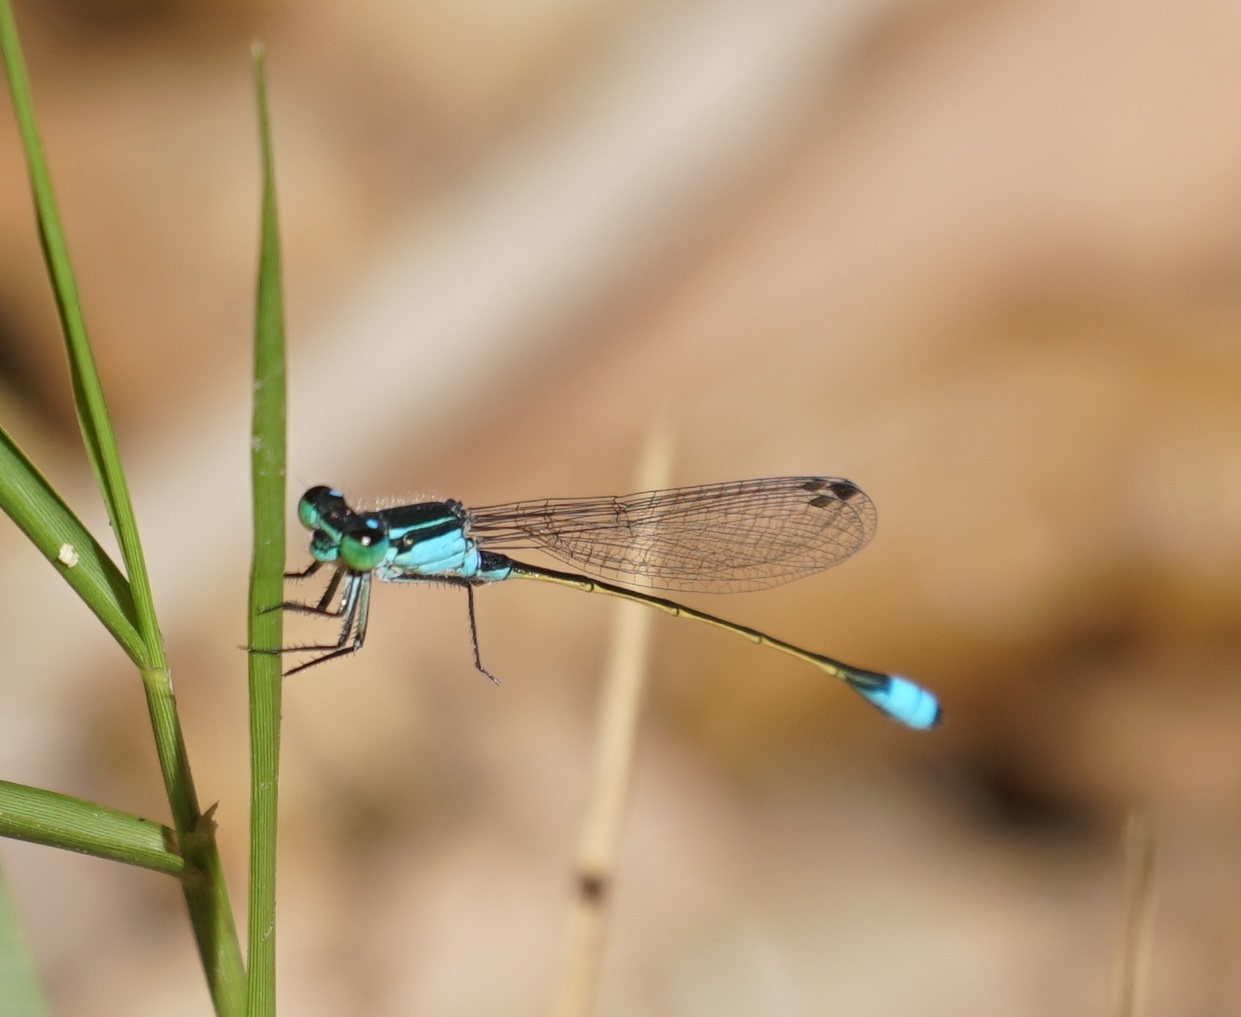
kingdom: Animalia
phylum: Arthropoda
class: Insecta
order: Odonata
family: Coenagrionidae
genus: Ischnura
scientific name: Ischnura heterosticta
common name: Common bluetail
